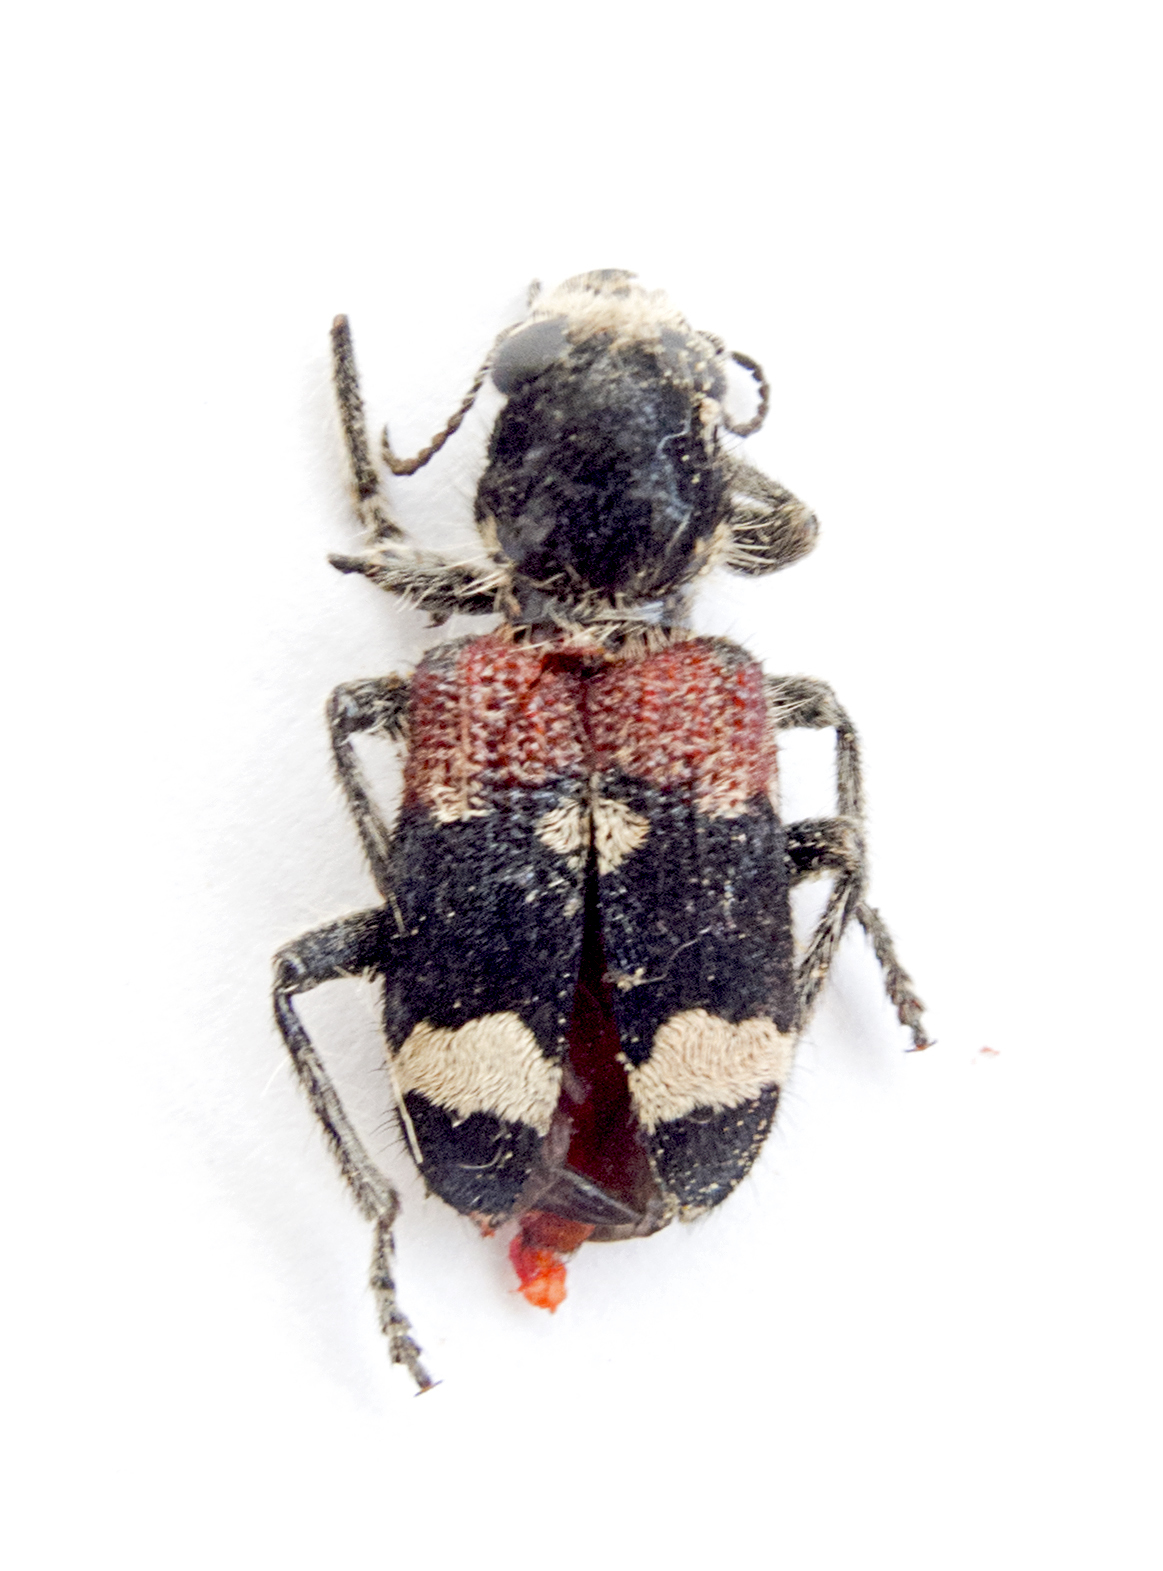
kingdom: Animalia
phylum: Arthropoda
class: Insecta
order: Coleoptera
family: Cleridae
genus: Clerus
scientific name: Clerus mutillarius
